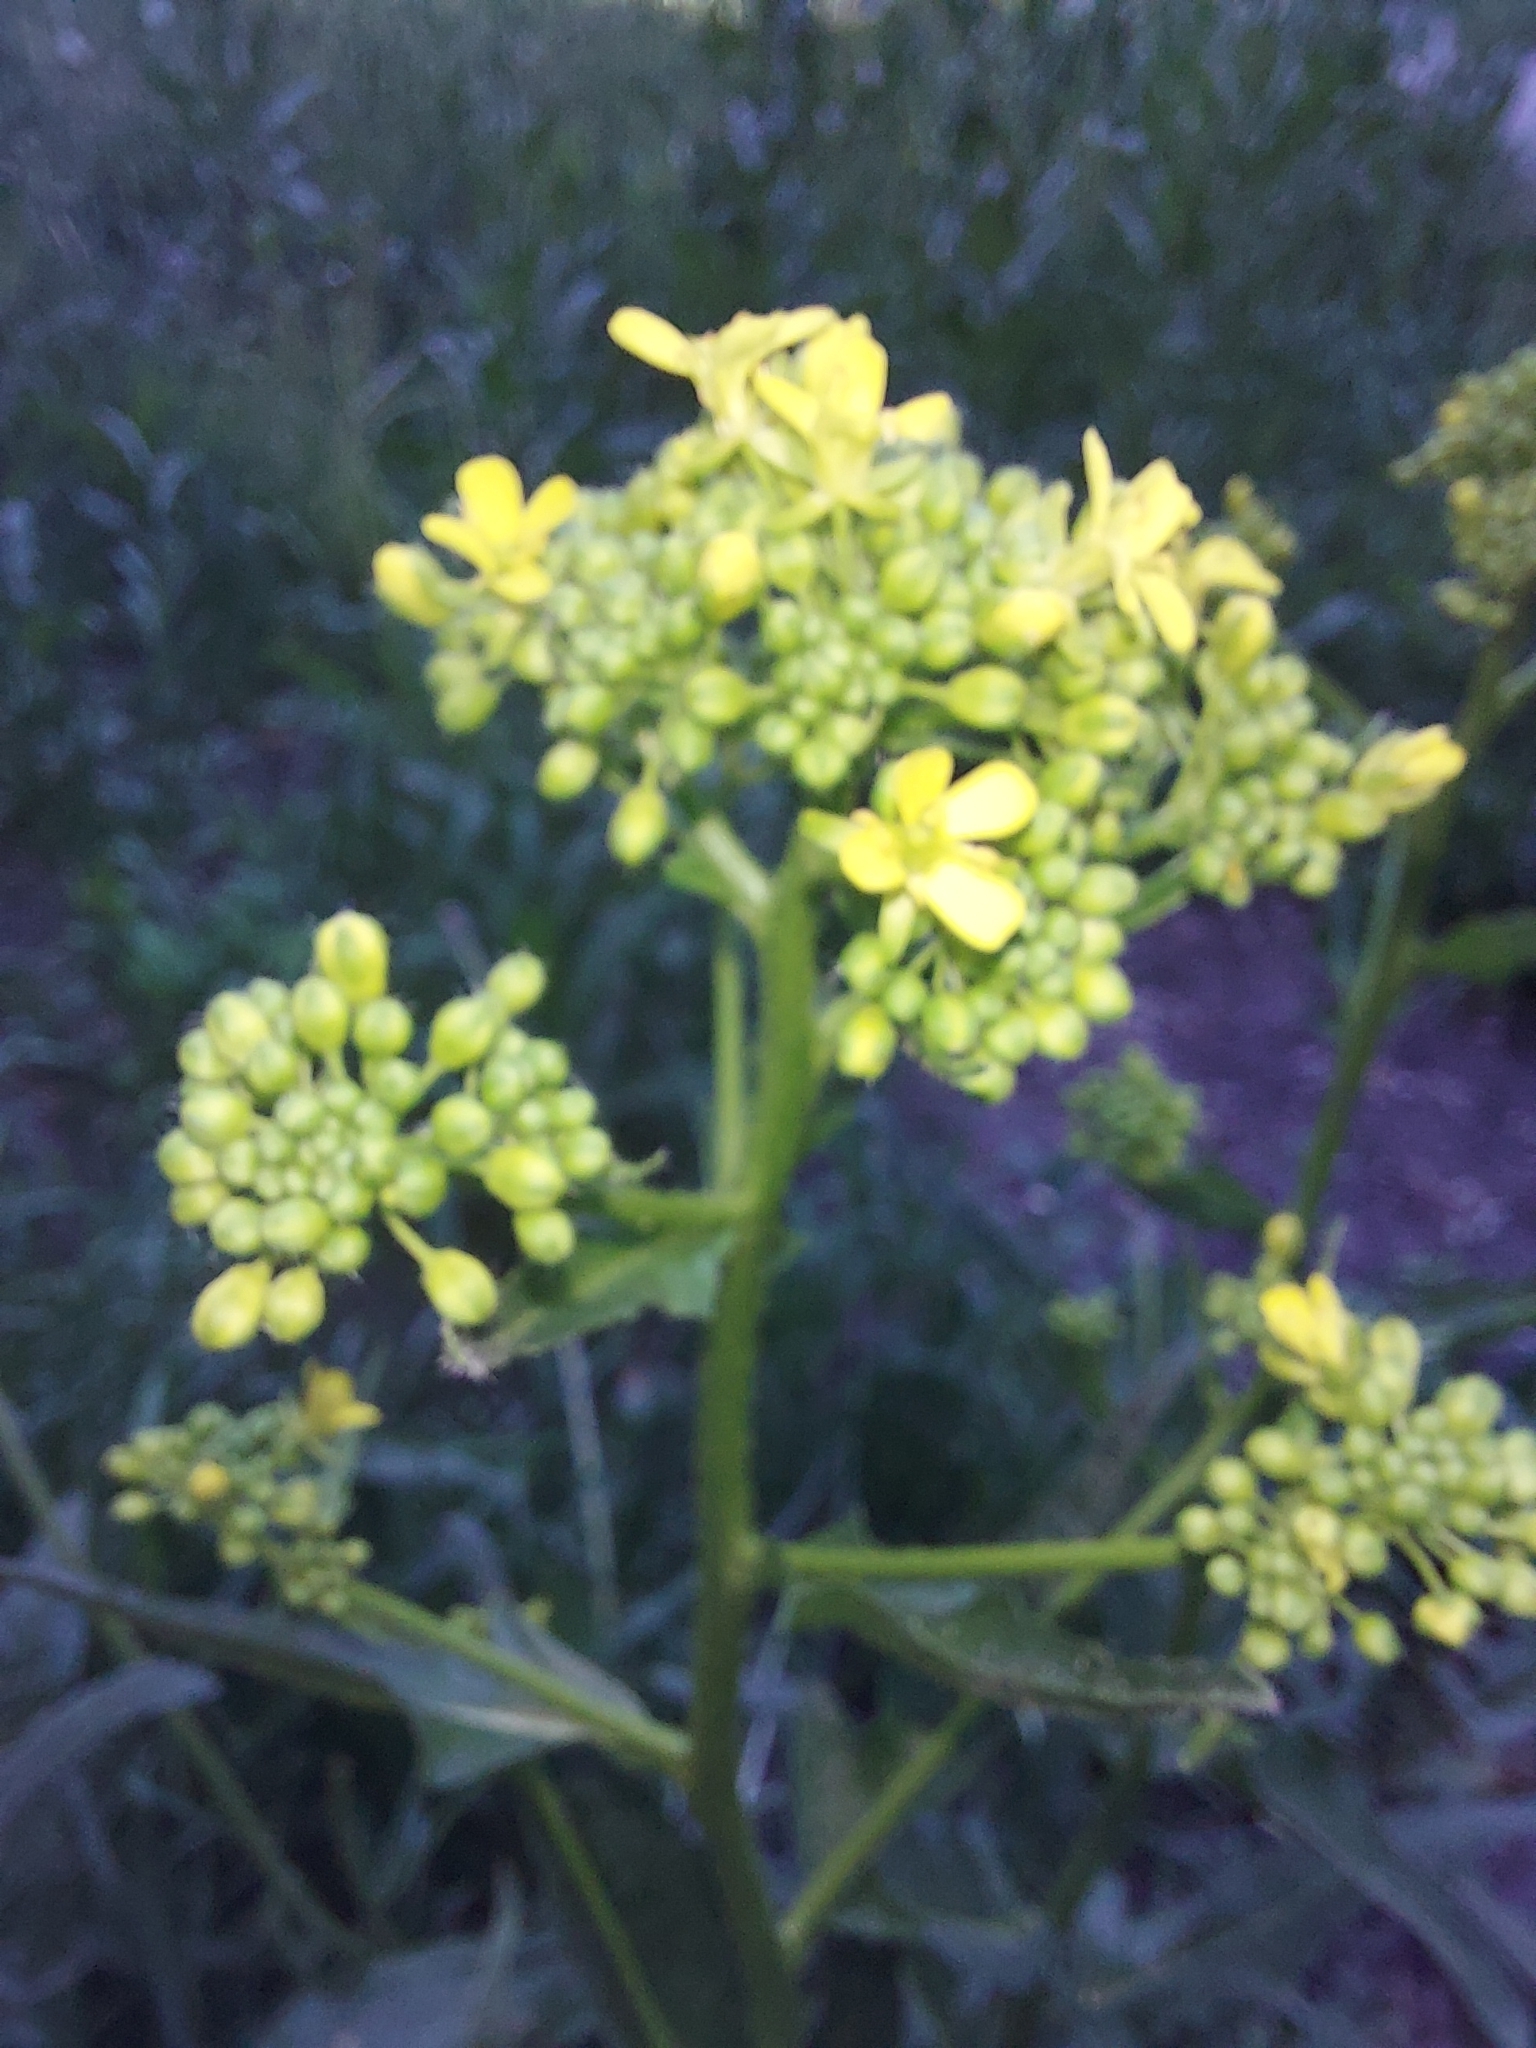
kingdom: Plantae
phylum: Tracheophyta
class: Magnoliopsida
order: Brassicales
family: Brassicaceae
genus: Bunias
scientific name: Bunias orientalis
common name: Warty-cabbage
